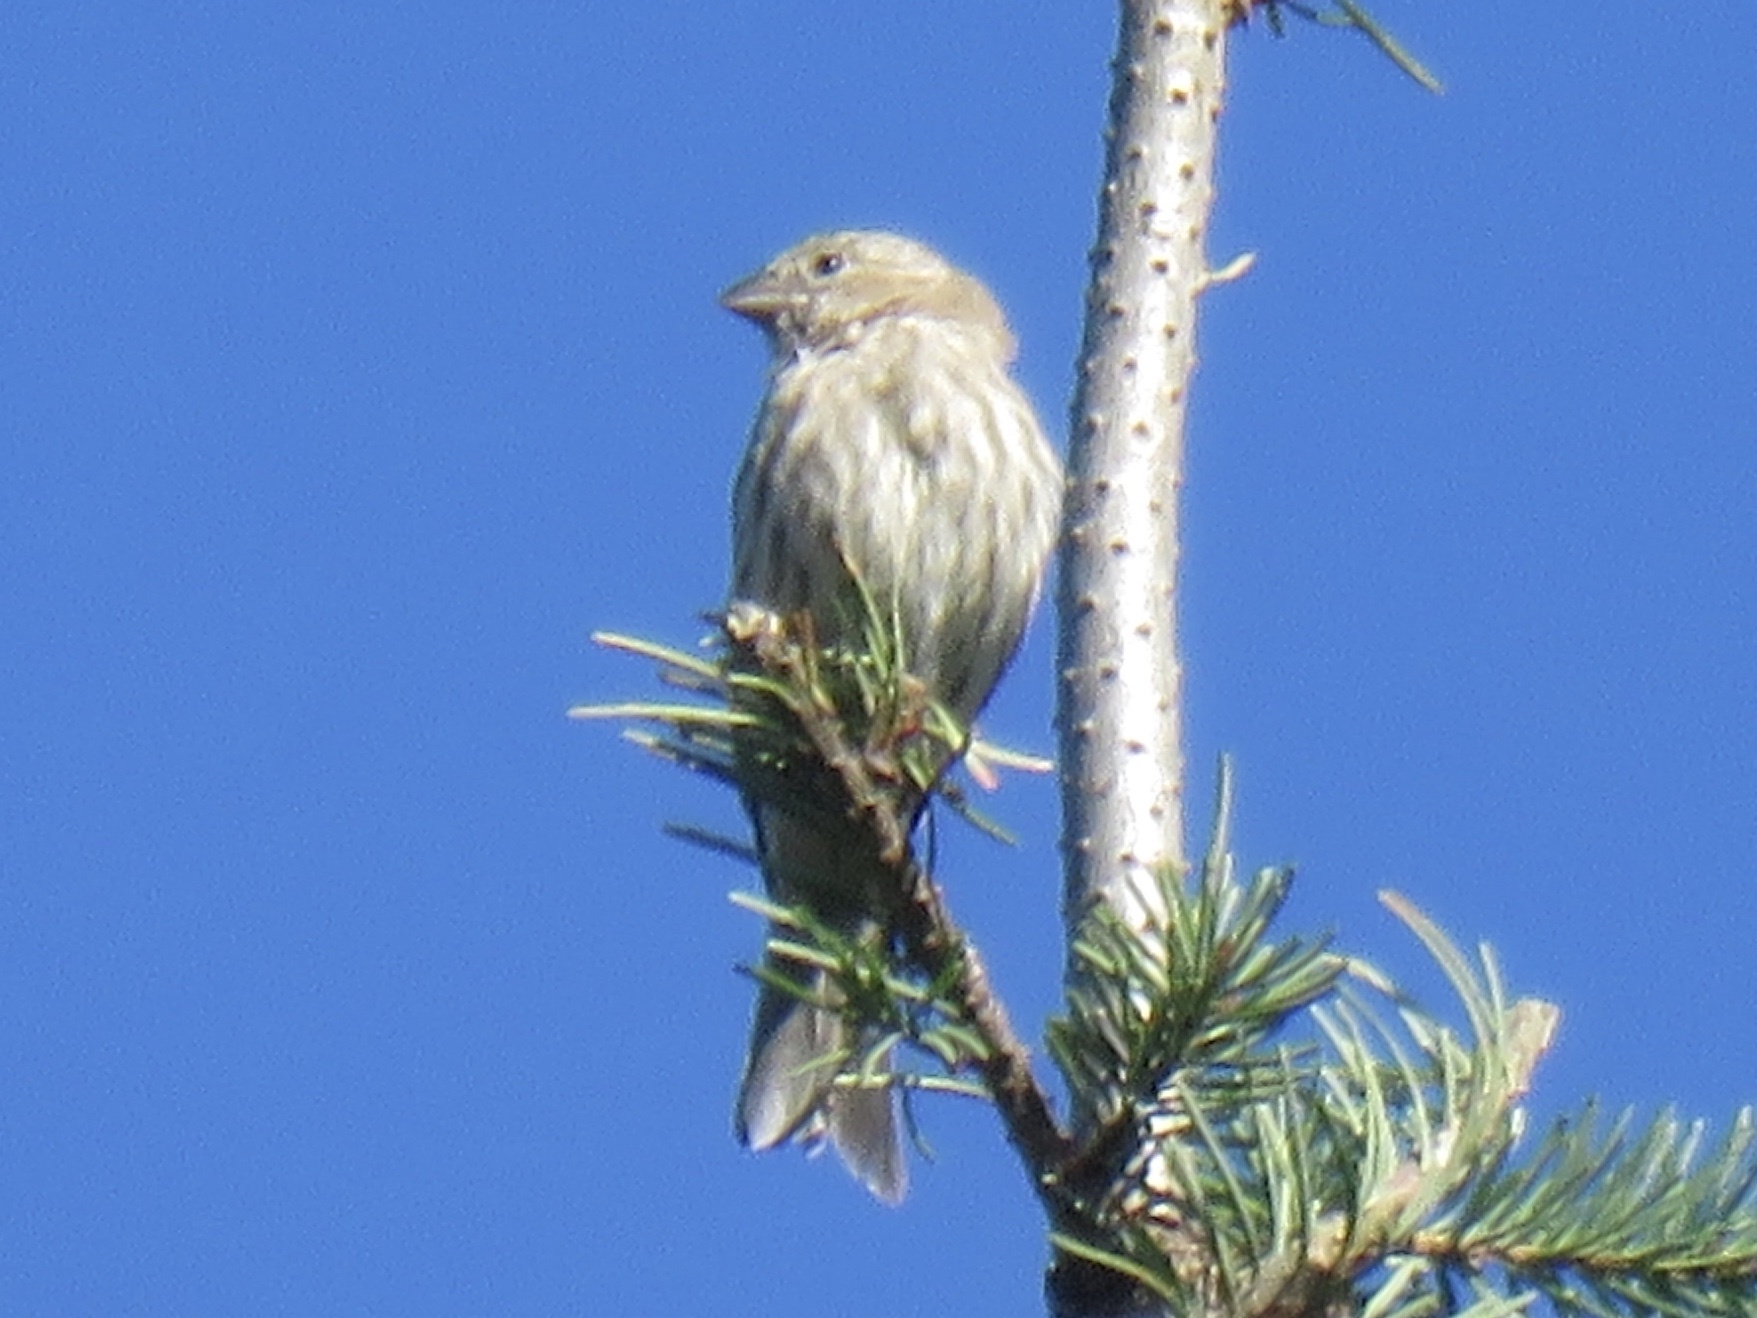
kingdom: Animalia
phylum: Chordata
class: Aves
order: Passeriformes
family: Fringillidae
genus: Haemorhous
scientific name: Haemorhous mexicanus
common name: House finch
